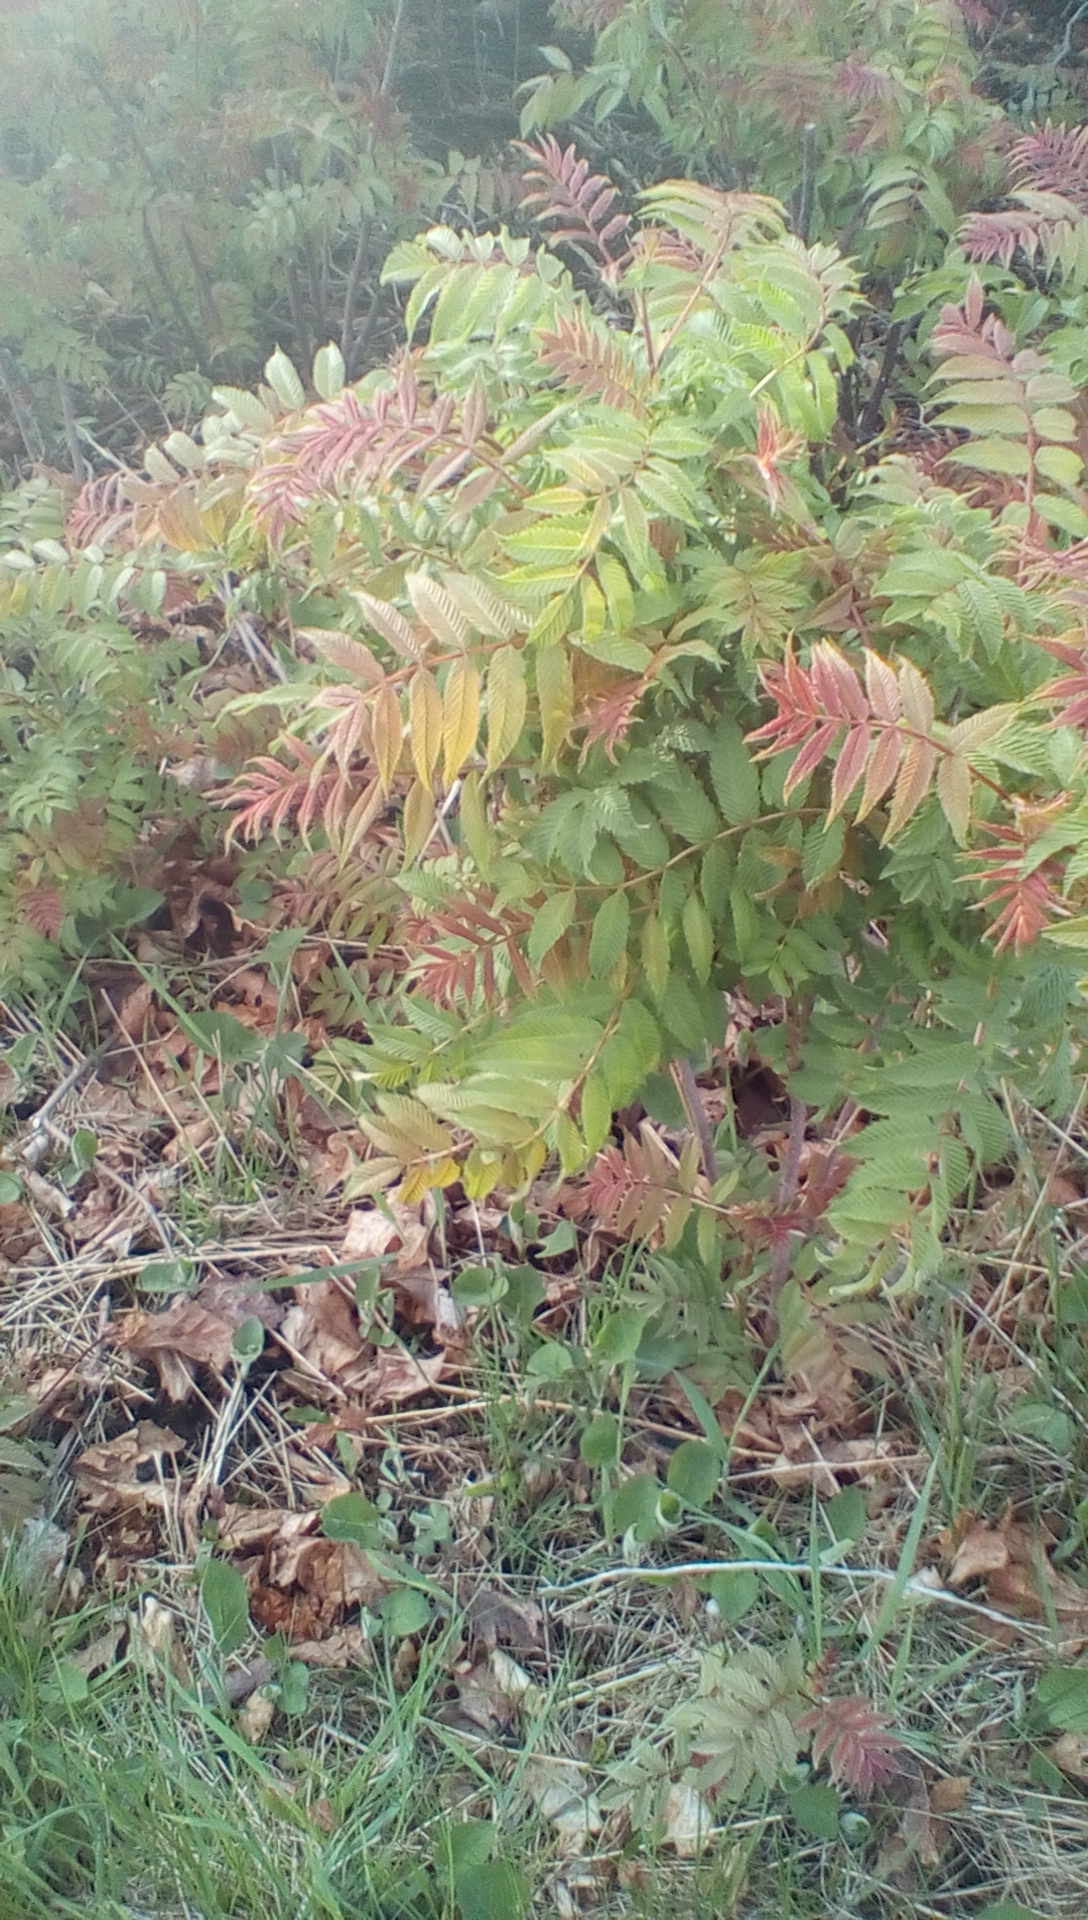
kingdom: Plantae
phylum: Tracheophyta
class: Magnoliopsida
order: Rosales
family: Rosaceae
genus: Sorbaria
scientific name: Sorbaria sorbifolia
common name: False spiraea
